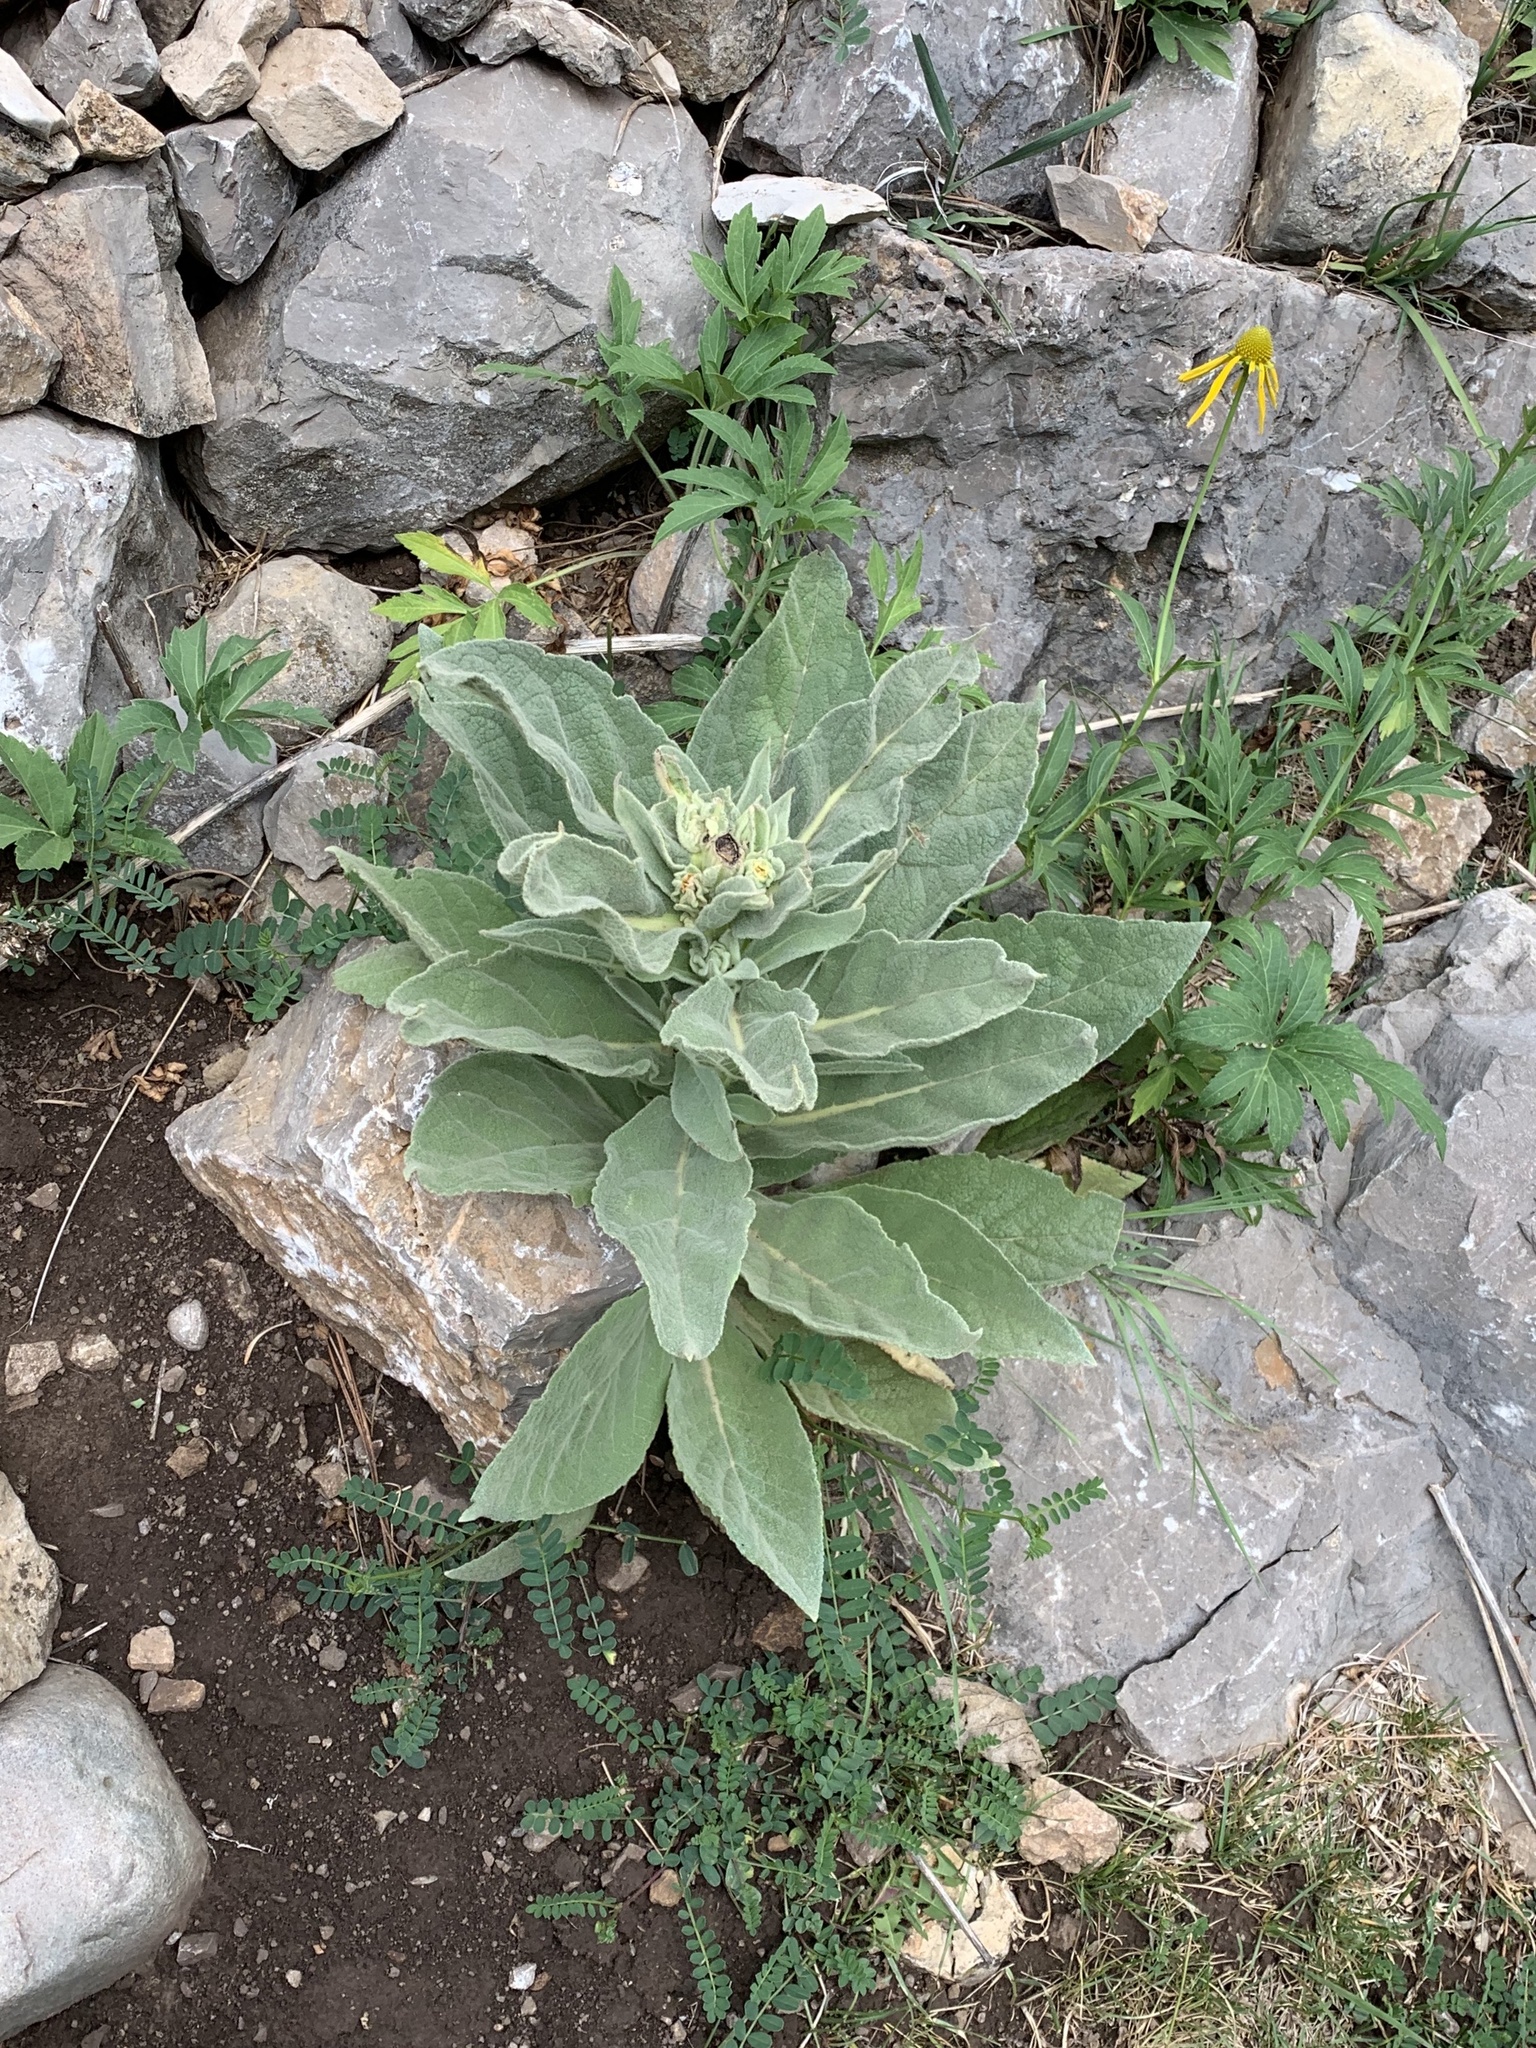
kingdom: Plantae
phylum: Tracheophyta
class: Magnoliopsida
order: Lamiales
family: Scrophulariaceae
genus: Verbascum
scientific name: Verbascum thapsus
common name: Common mullein
